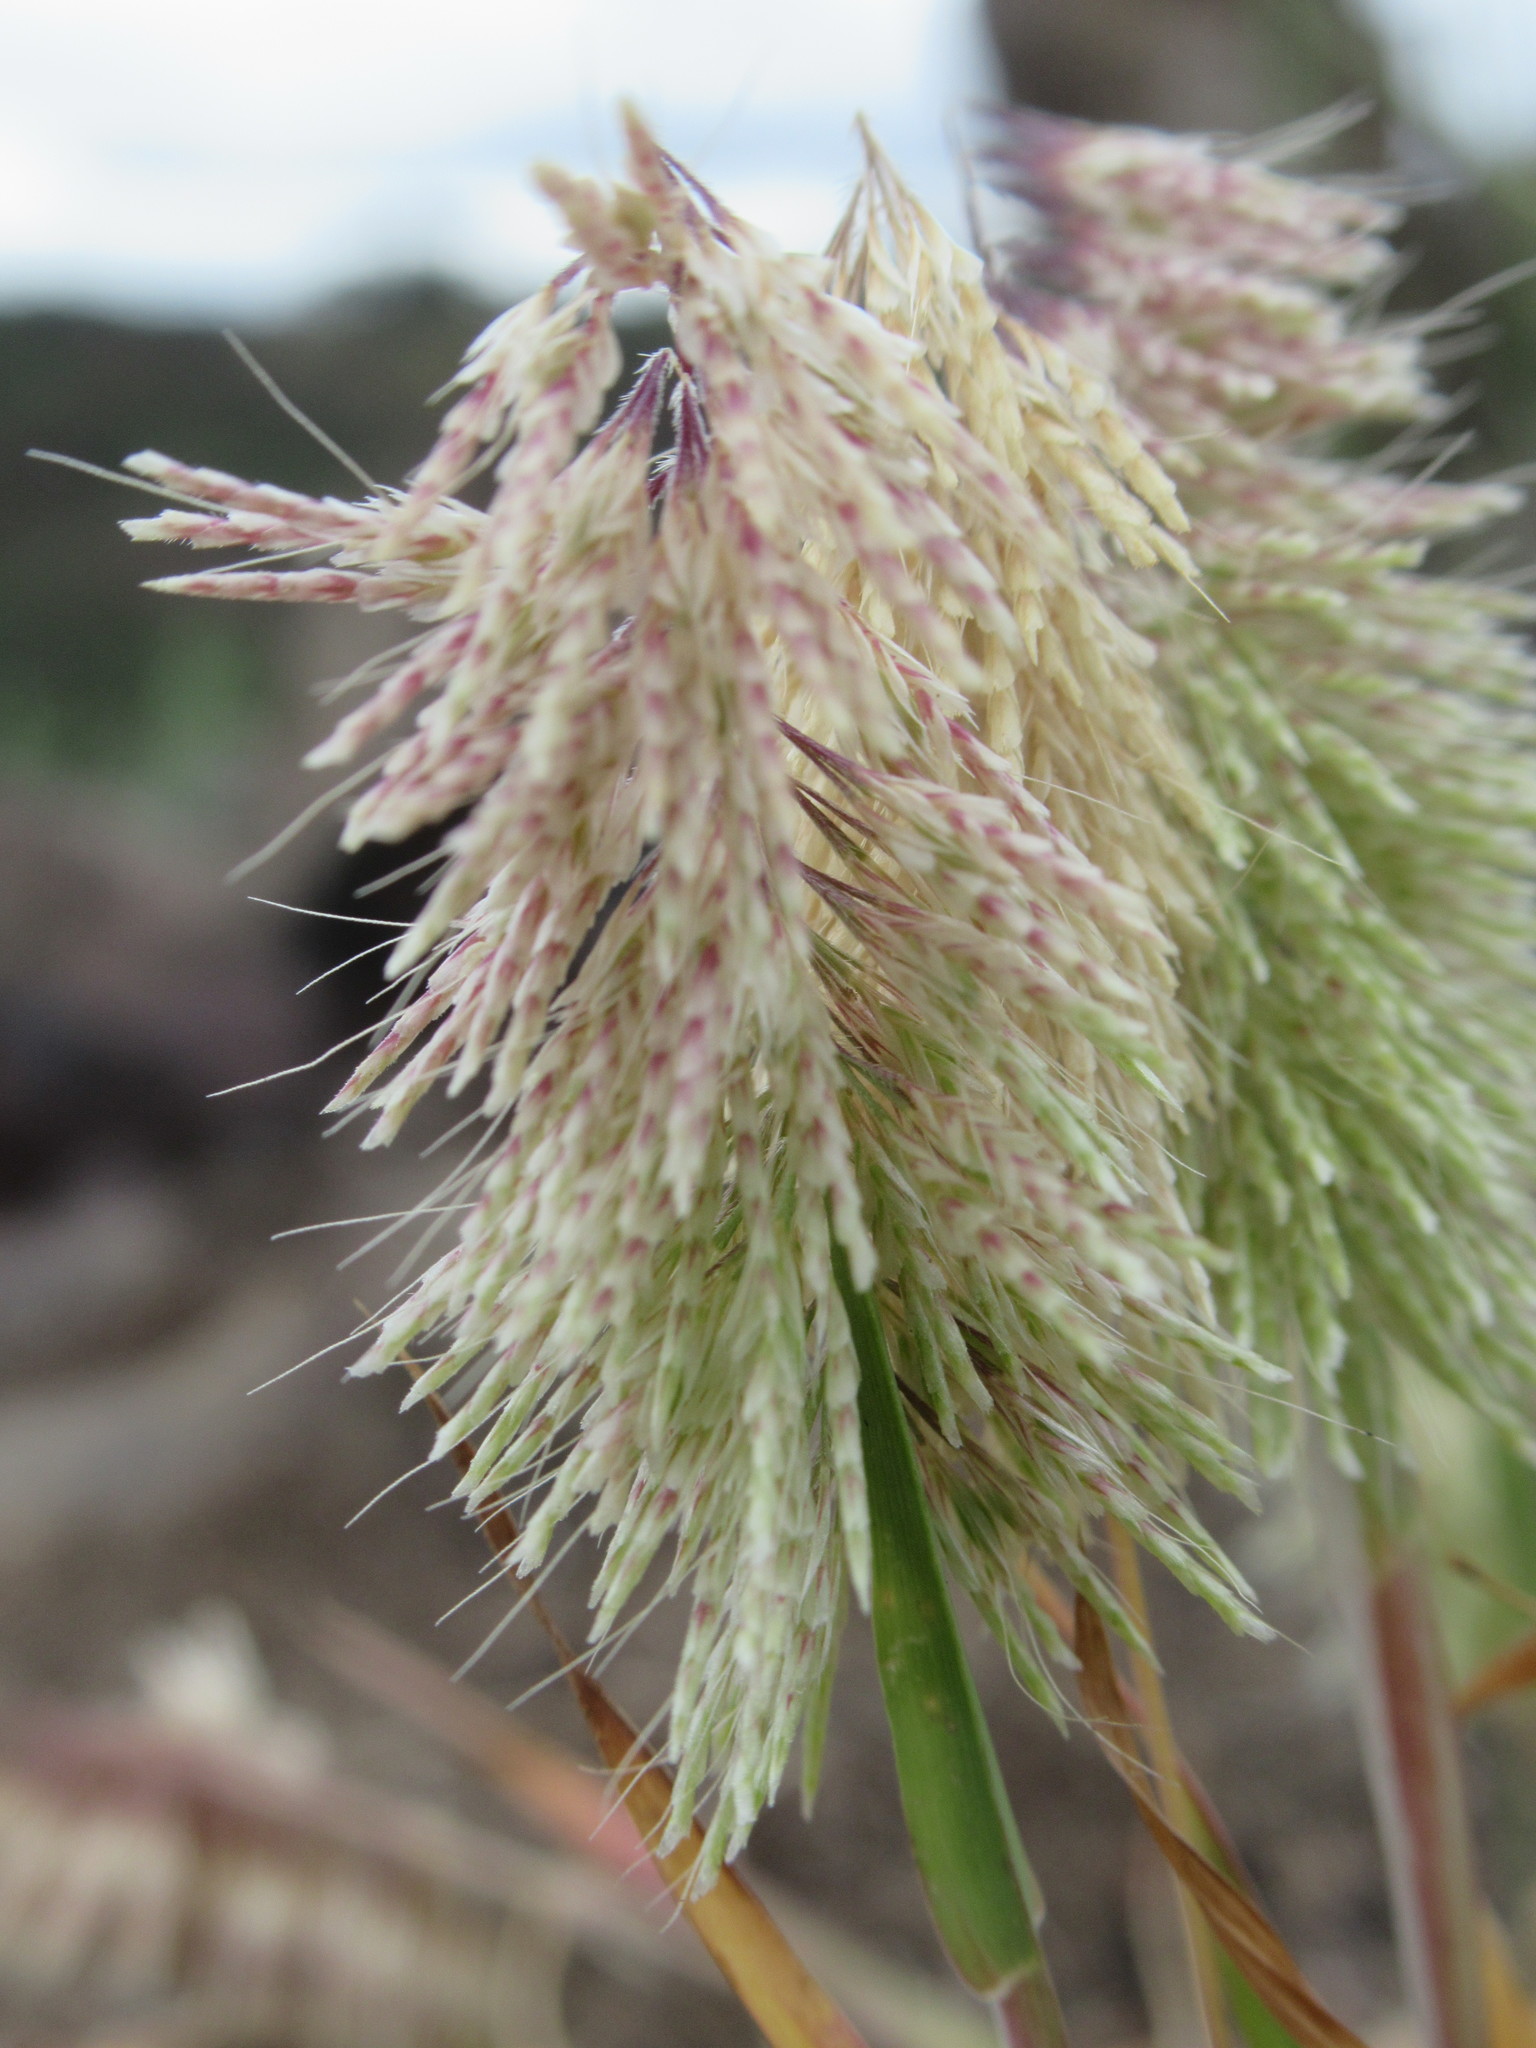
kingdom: Plantae
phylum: Tracheophyta
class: Liliopsida
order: Poales
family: Poaceae
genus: Lamarckia
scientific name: Lamarckia aurea
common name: Golden dog's-tail
